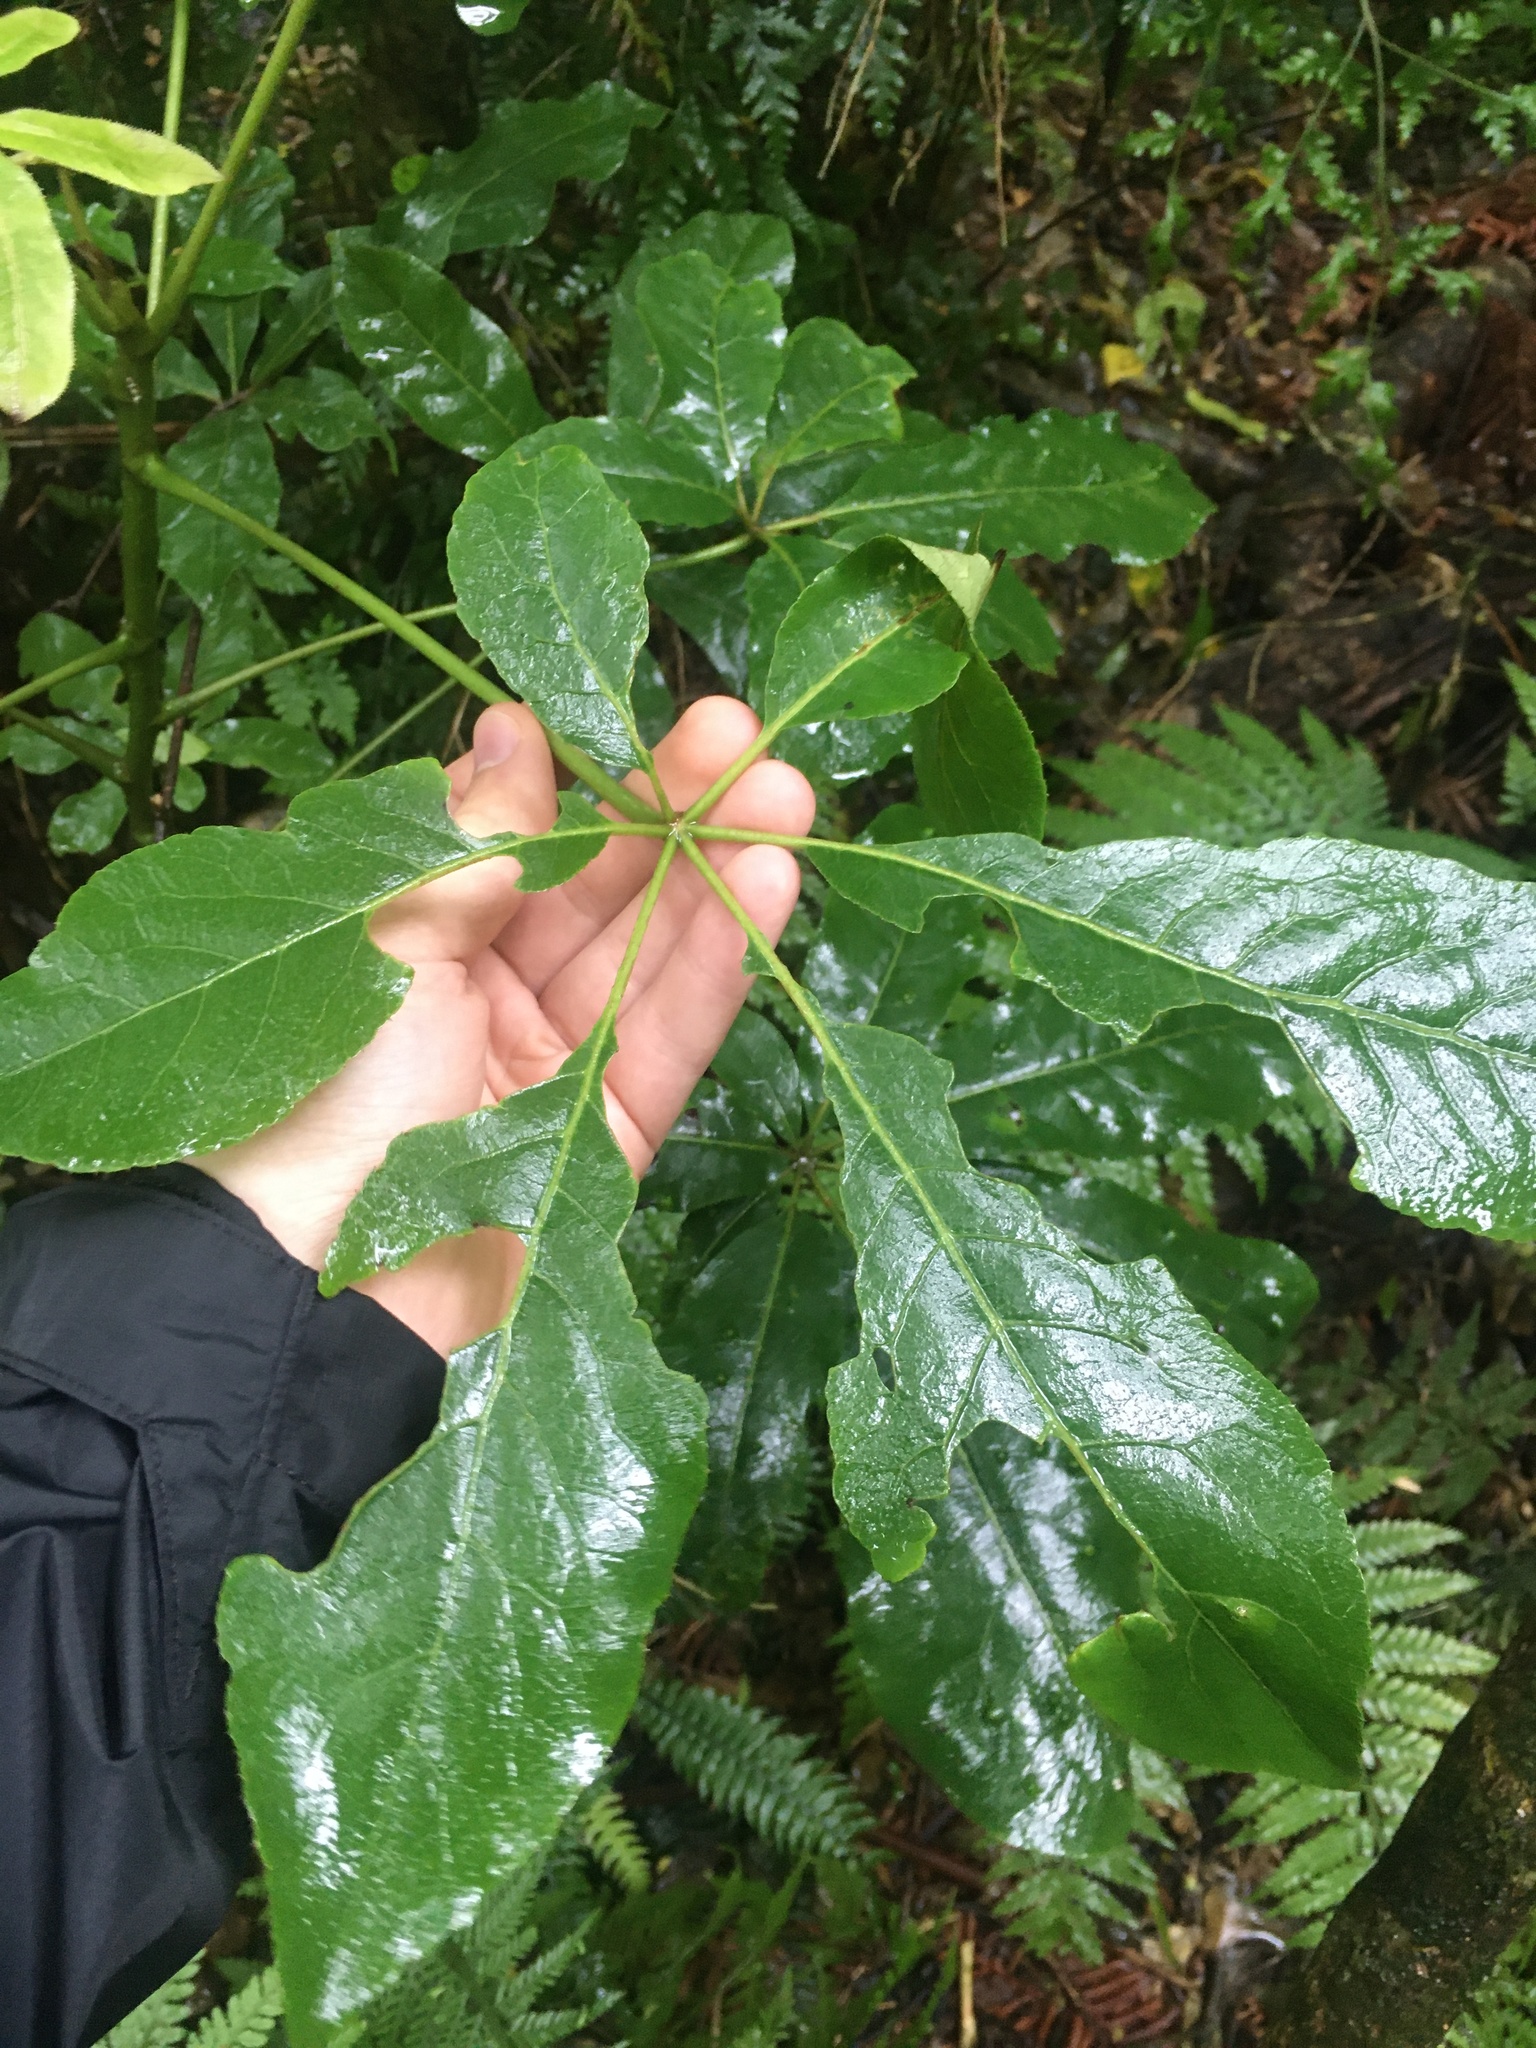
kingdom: Plantae
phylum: Tracheophyta
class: Magnoliopsida
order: Apiales
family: Araliaceae
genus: Schefflera
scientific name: Schefflera digitata
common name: Pate
